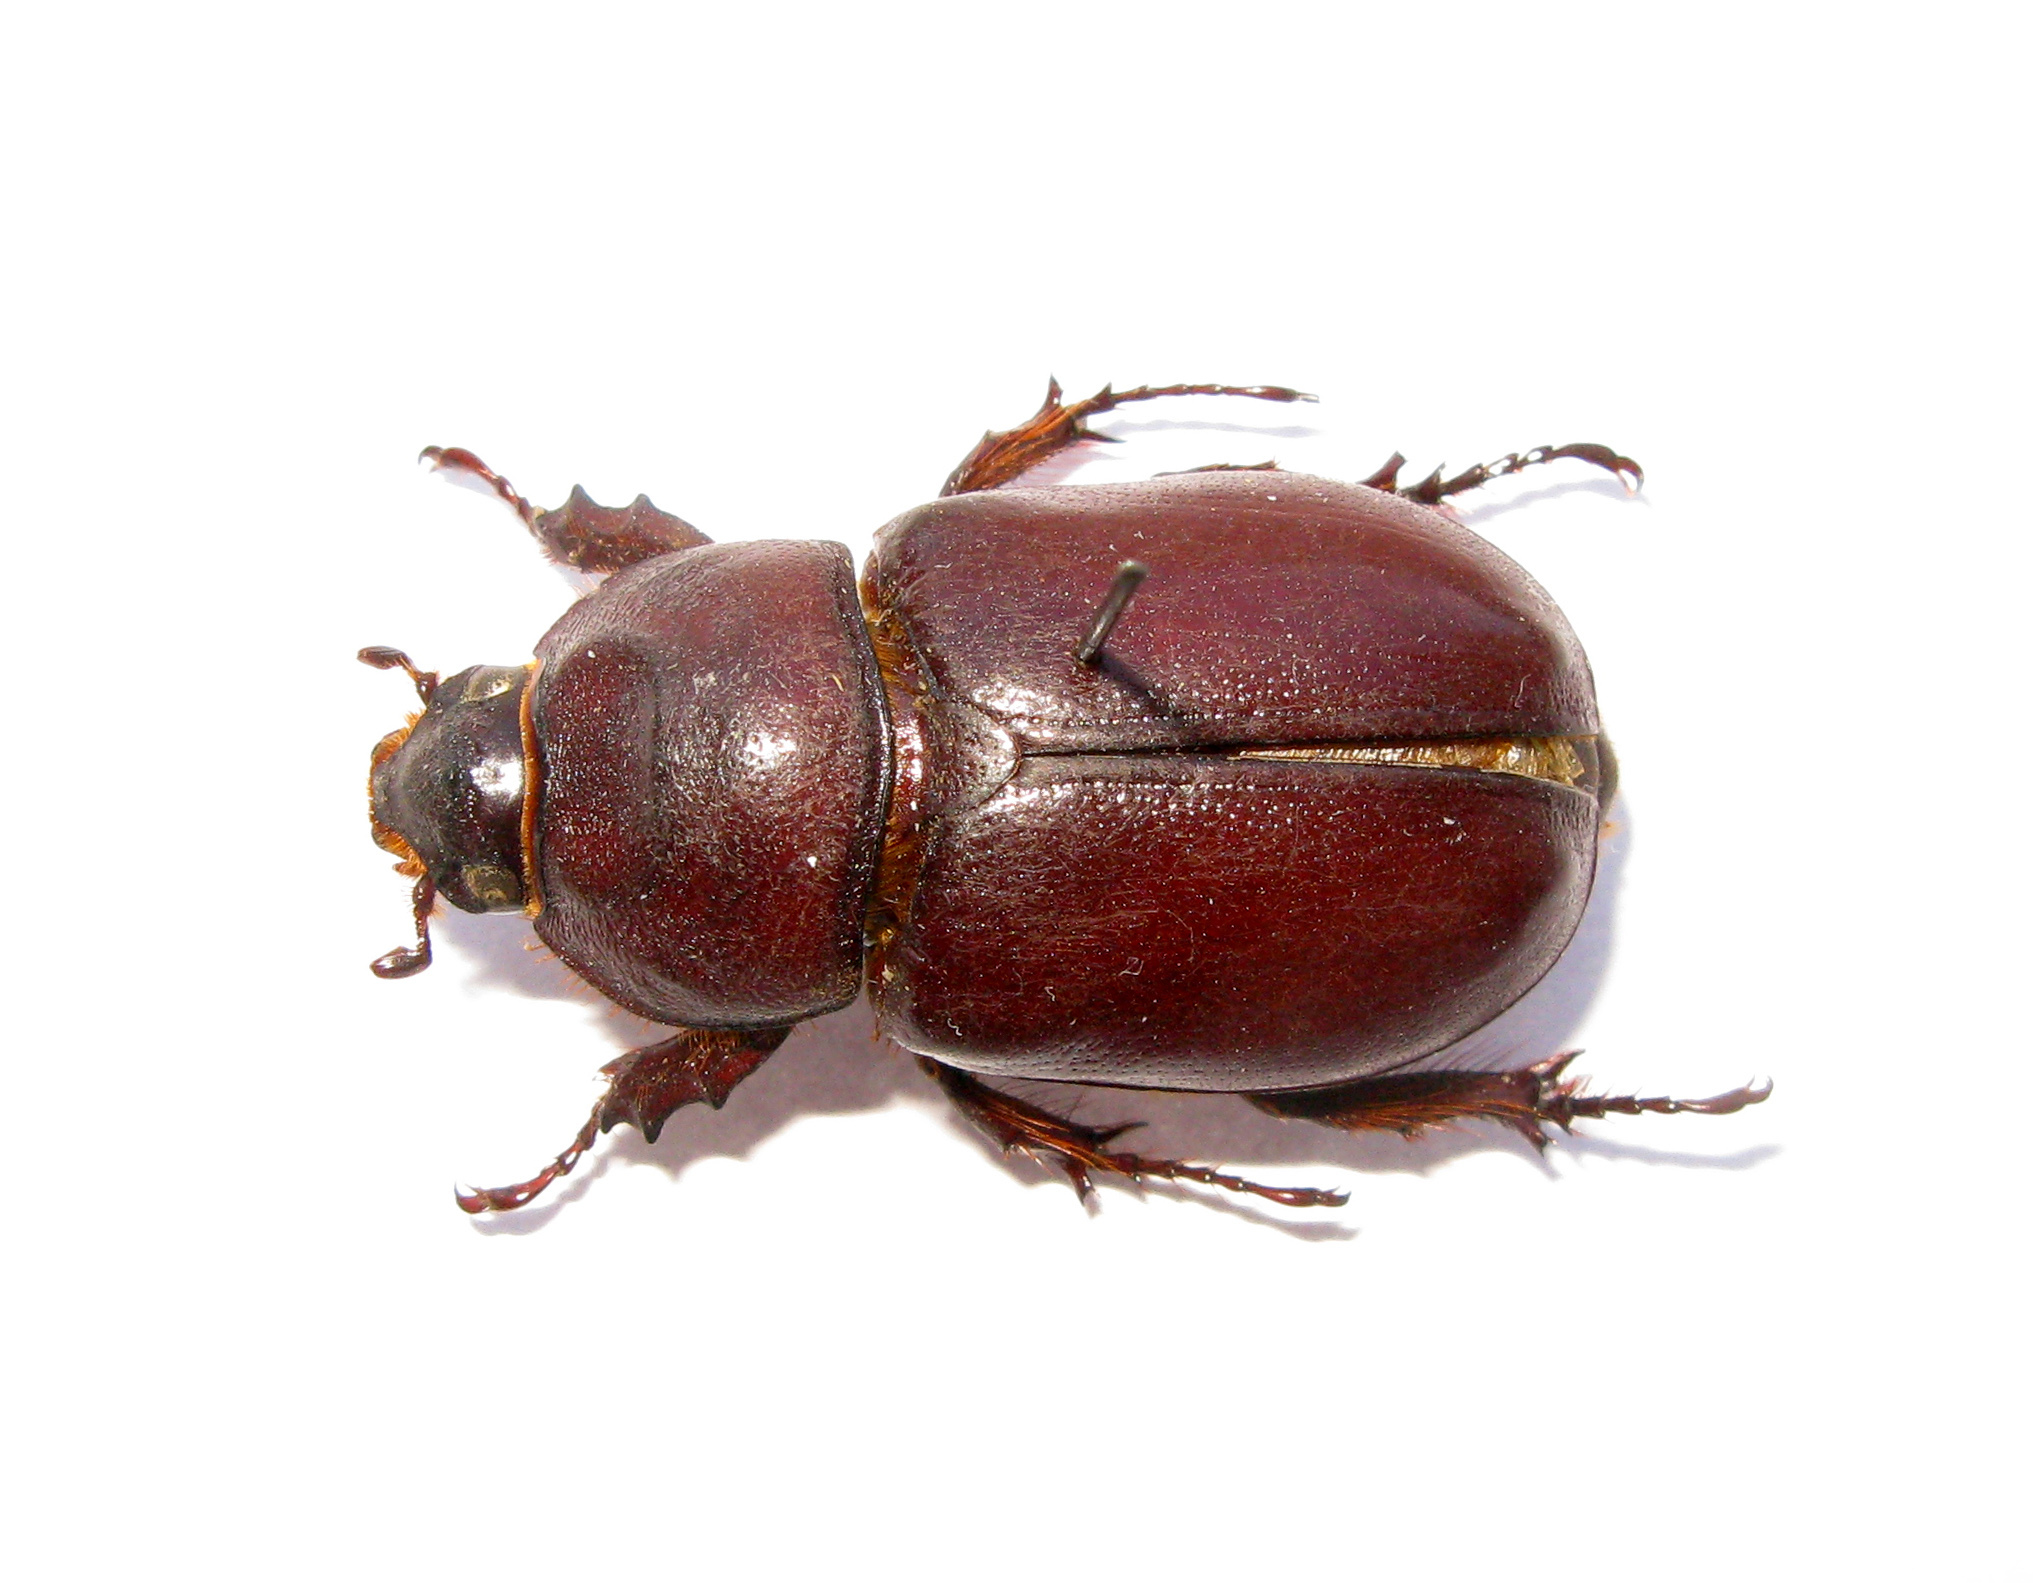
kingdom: Animalia
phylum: Arthropoda
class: Insecta
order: Coleoptera
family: Scarabaeidae
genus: Oryctes
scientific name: Oryctes nasicornis
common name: European rhinoceros beetle
